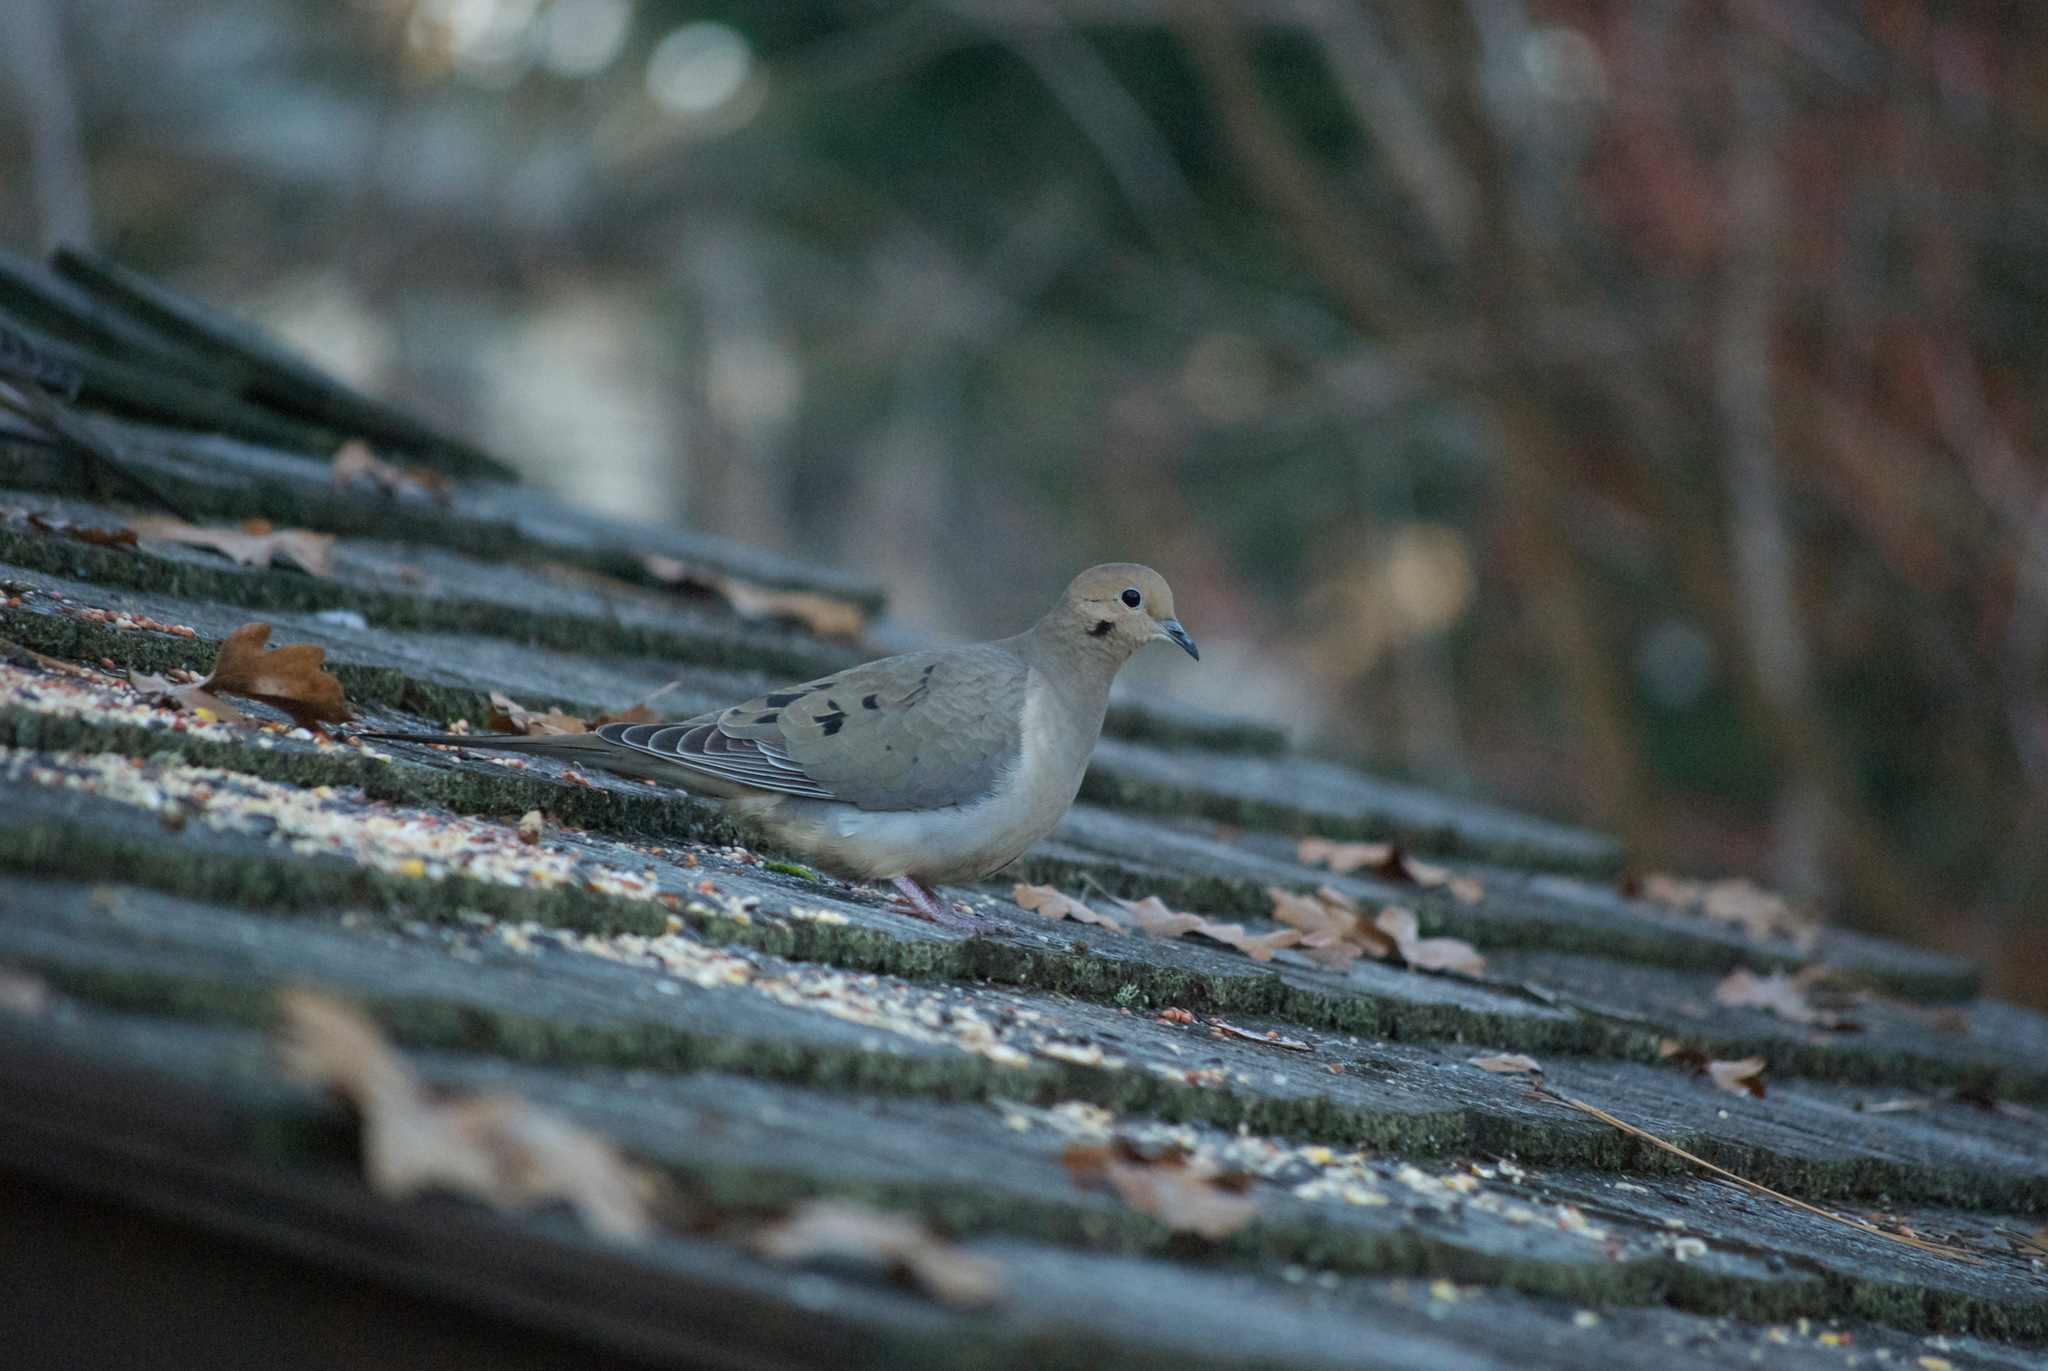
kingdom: Animalia
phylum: Chordata
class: Aves
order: Columbiformes
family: Columbidae
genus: Zenaida
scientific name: Zenaida macroura
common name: Mourning dove
